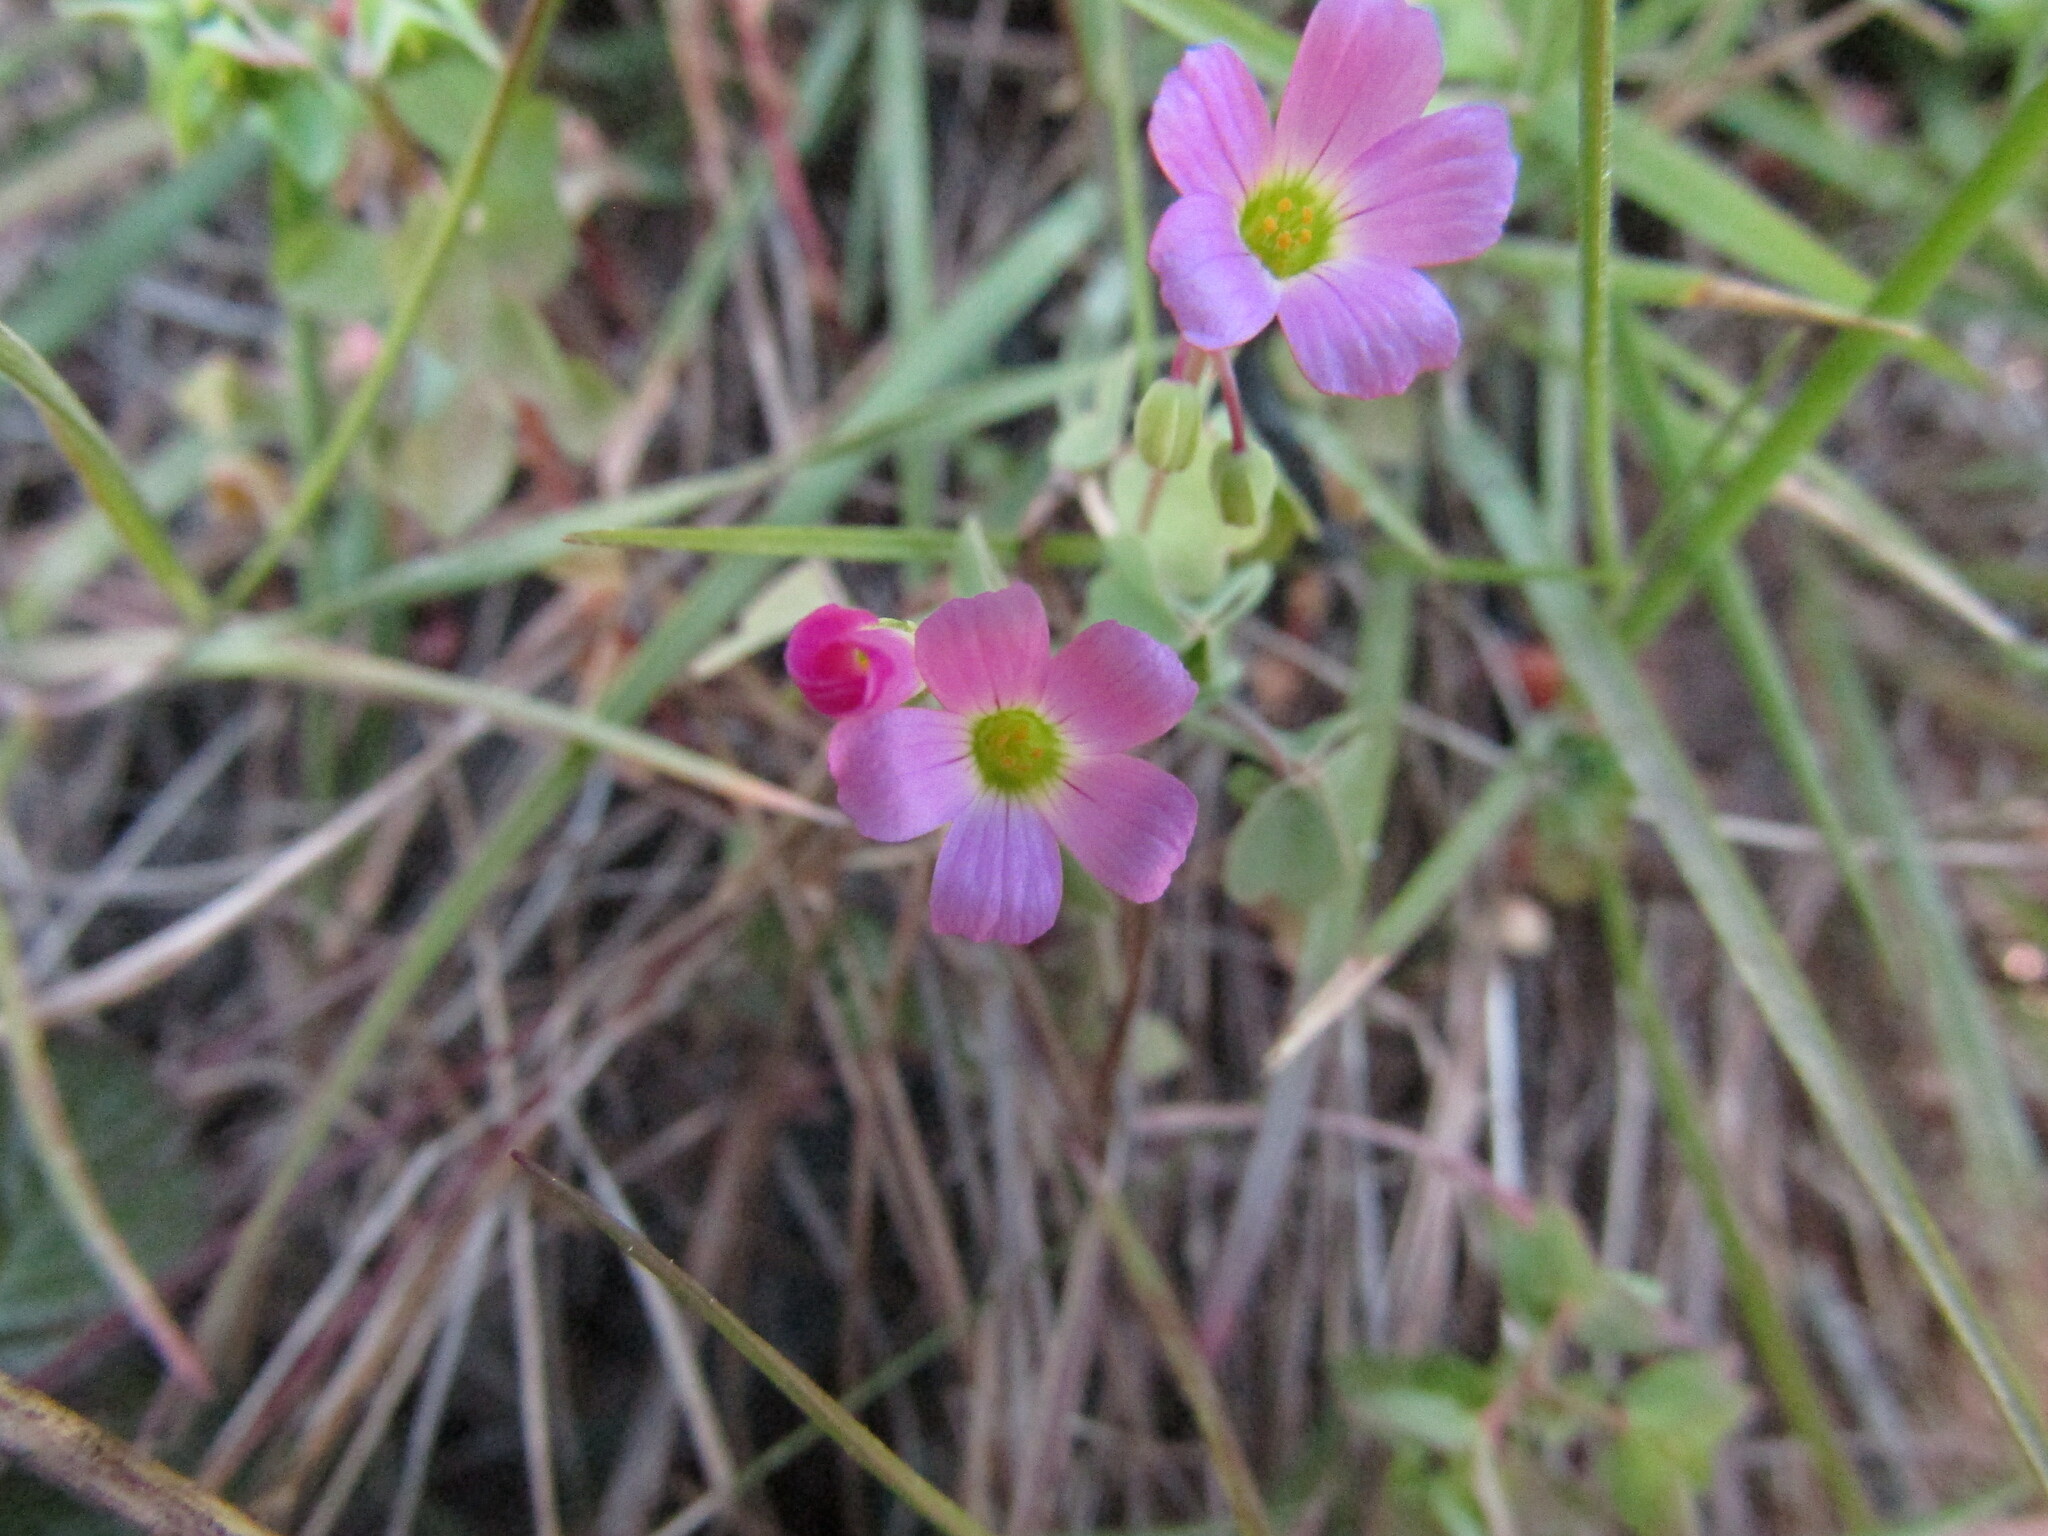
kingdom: Plantae
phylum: Tracheophyta
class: Magnoliopsida
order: Oxalidales
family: Oxalidaceae
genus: Oxalis
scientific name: Oxalis rosea
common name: Annual pink-sorrel
